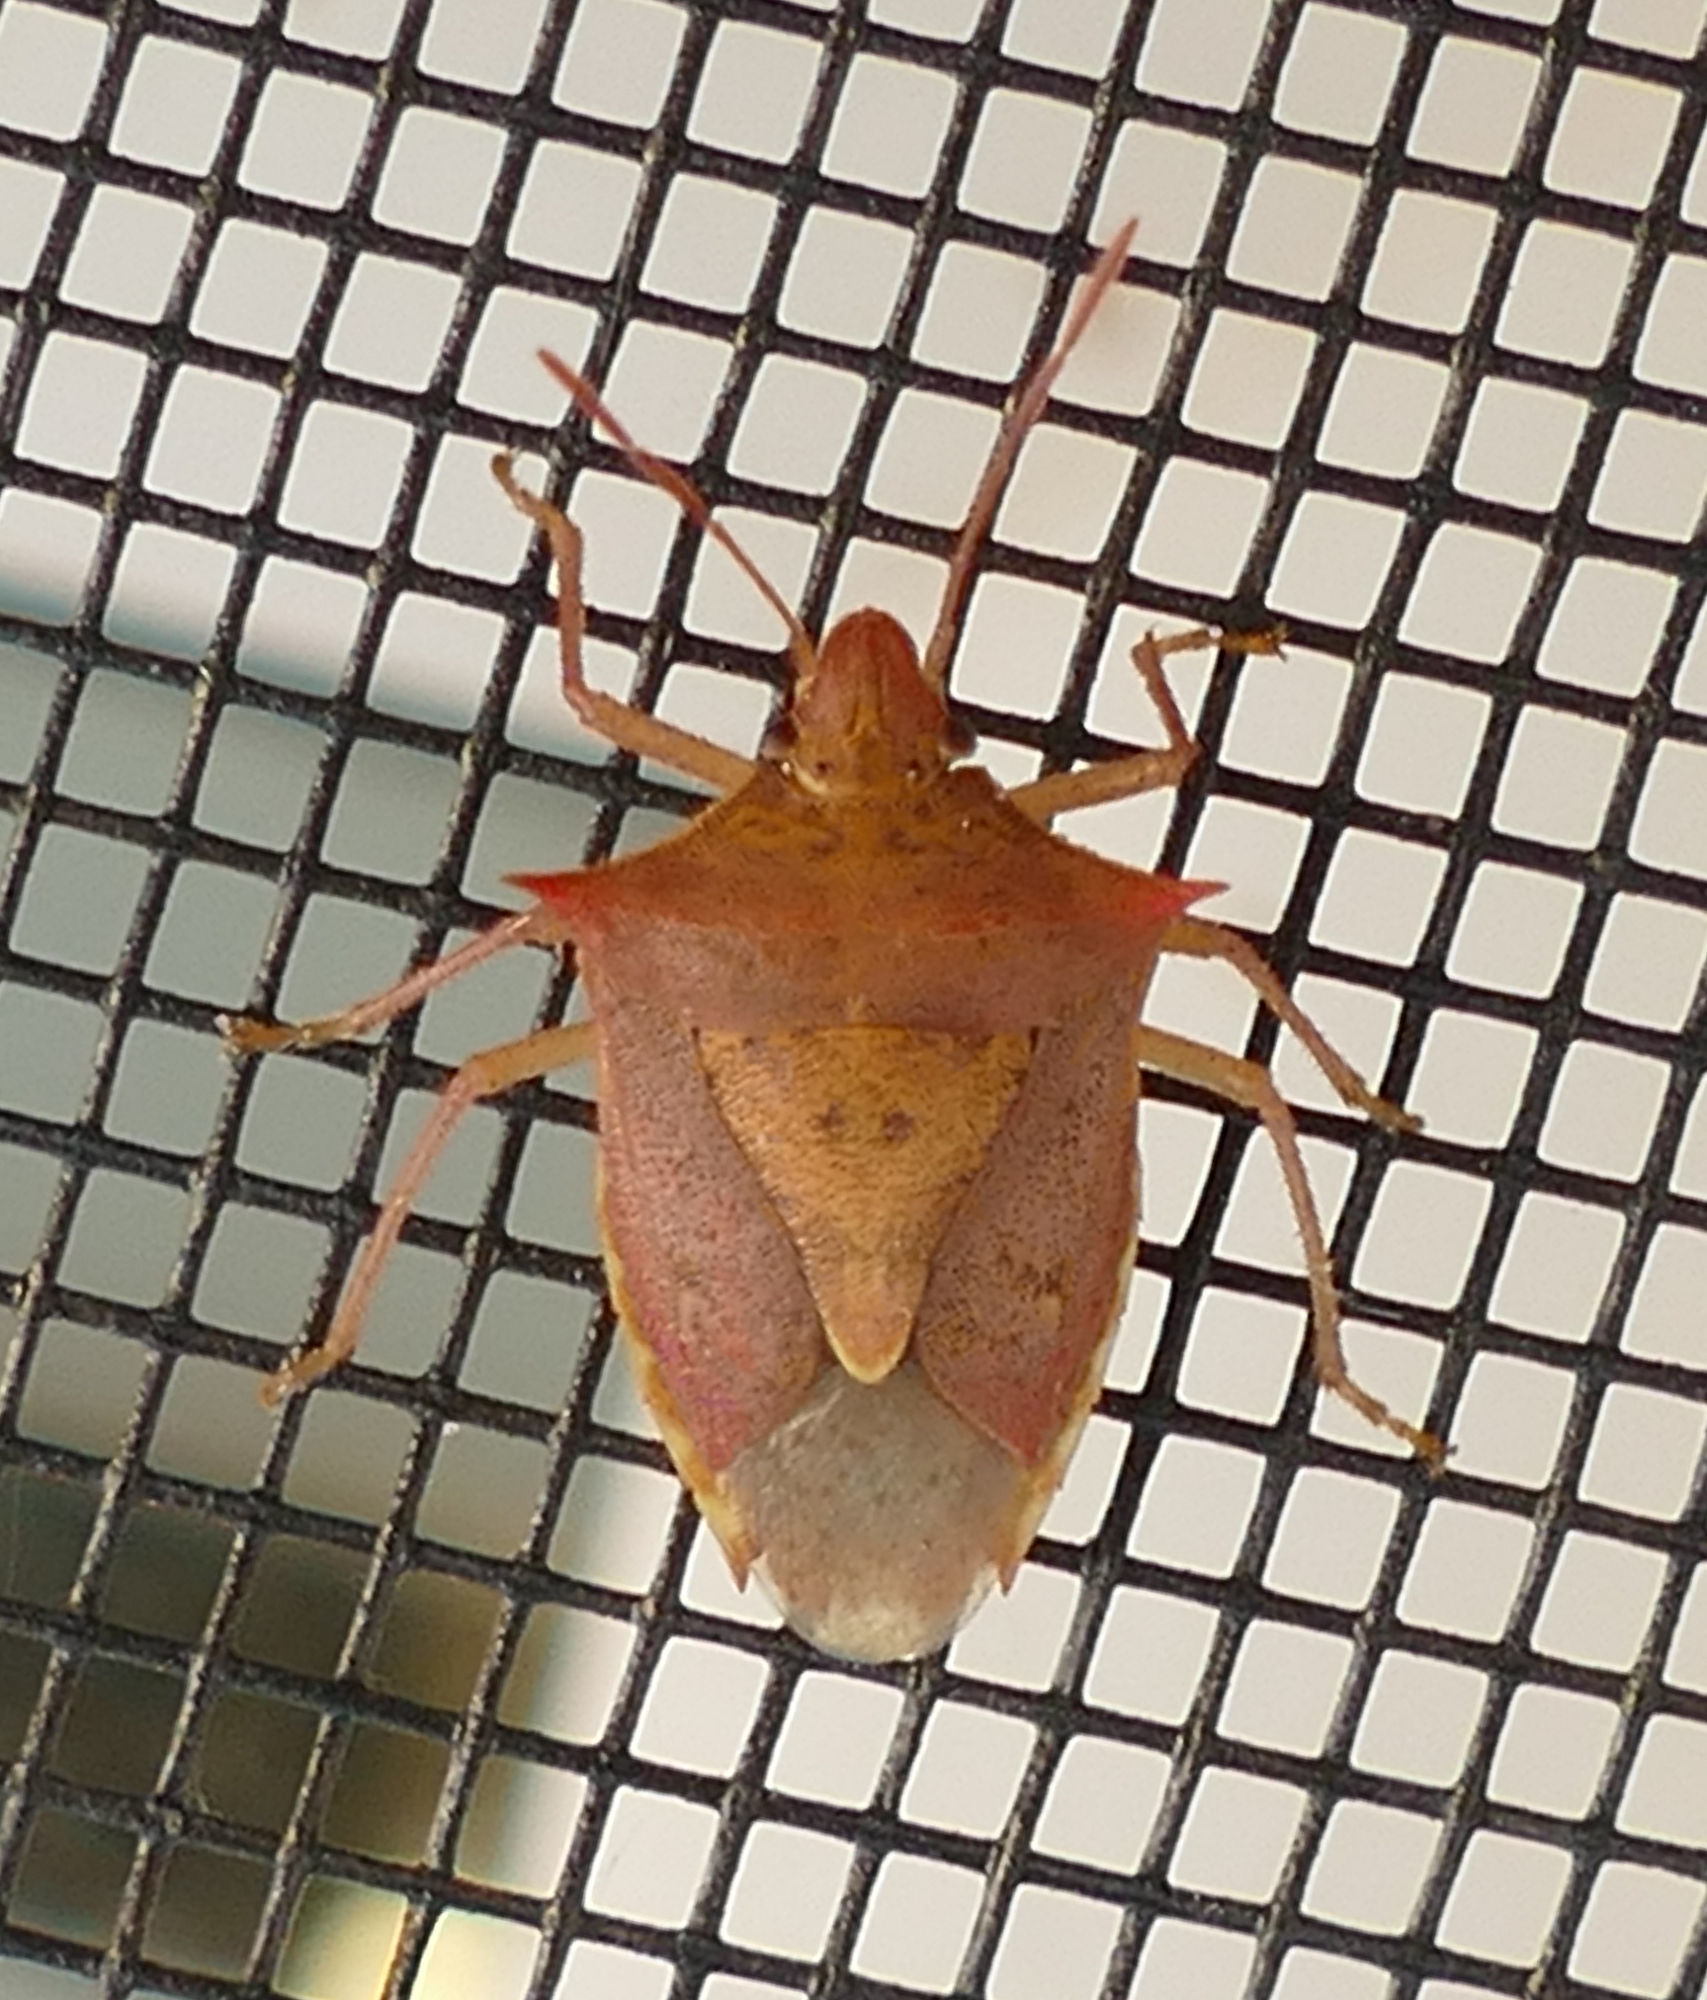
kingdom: Animalia
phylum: Arthropoda
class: Insecta
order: Hemiptera
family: Pentatomidae
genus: Euschistus
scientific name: Euschistus ictericus
